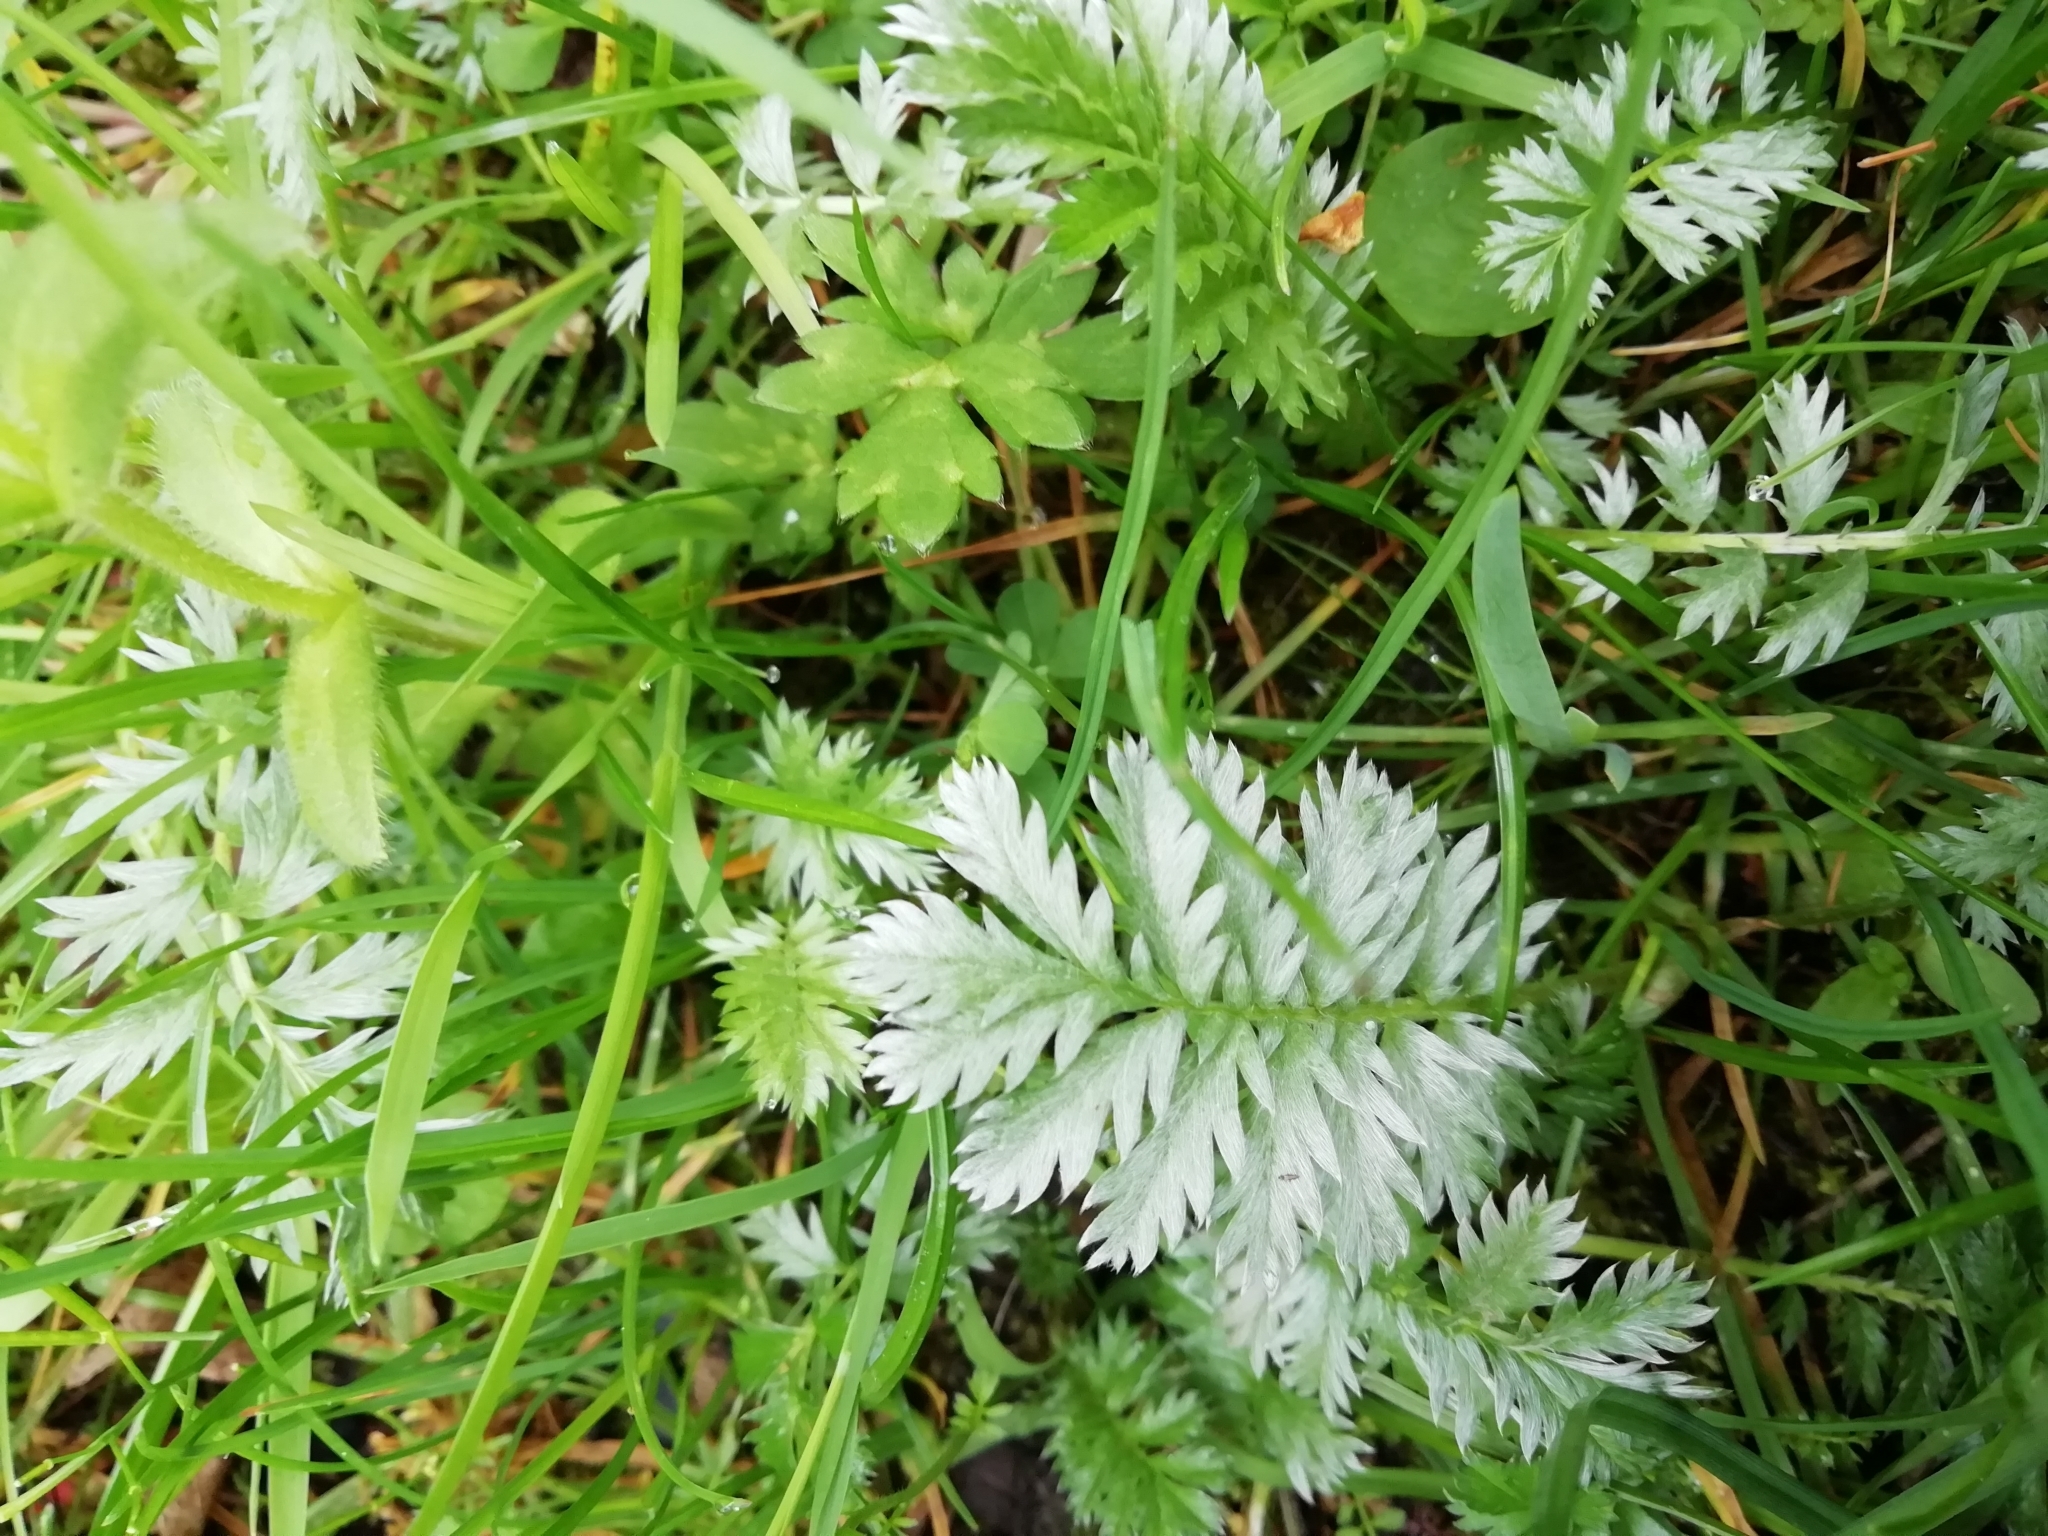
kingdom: Plantae
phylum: Tracheophyta
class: Magnoliopsida
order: Rosales
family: Rosaceae
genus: Argentina
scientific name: Argentina anserina
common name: Common silverweed
